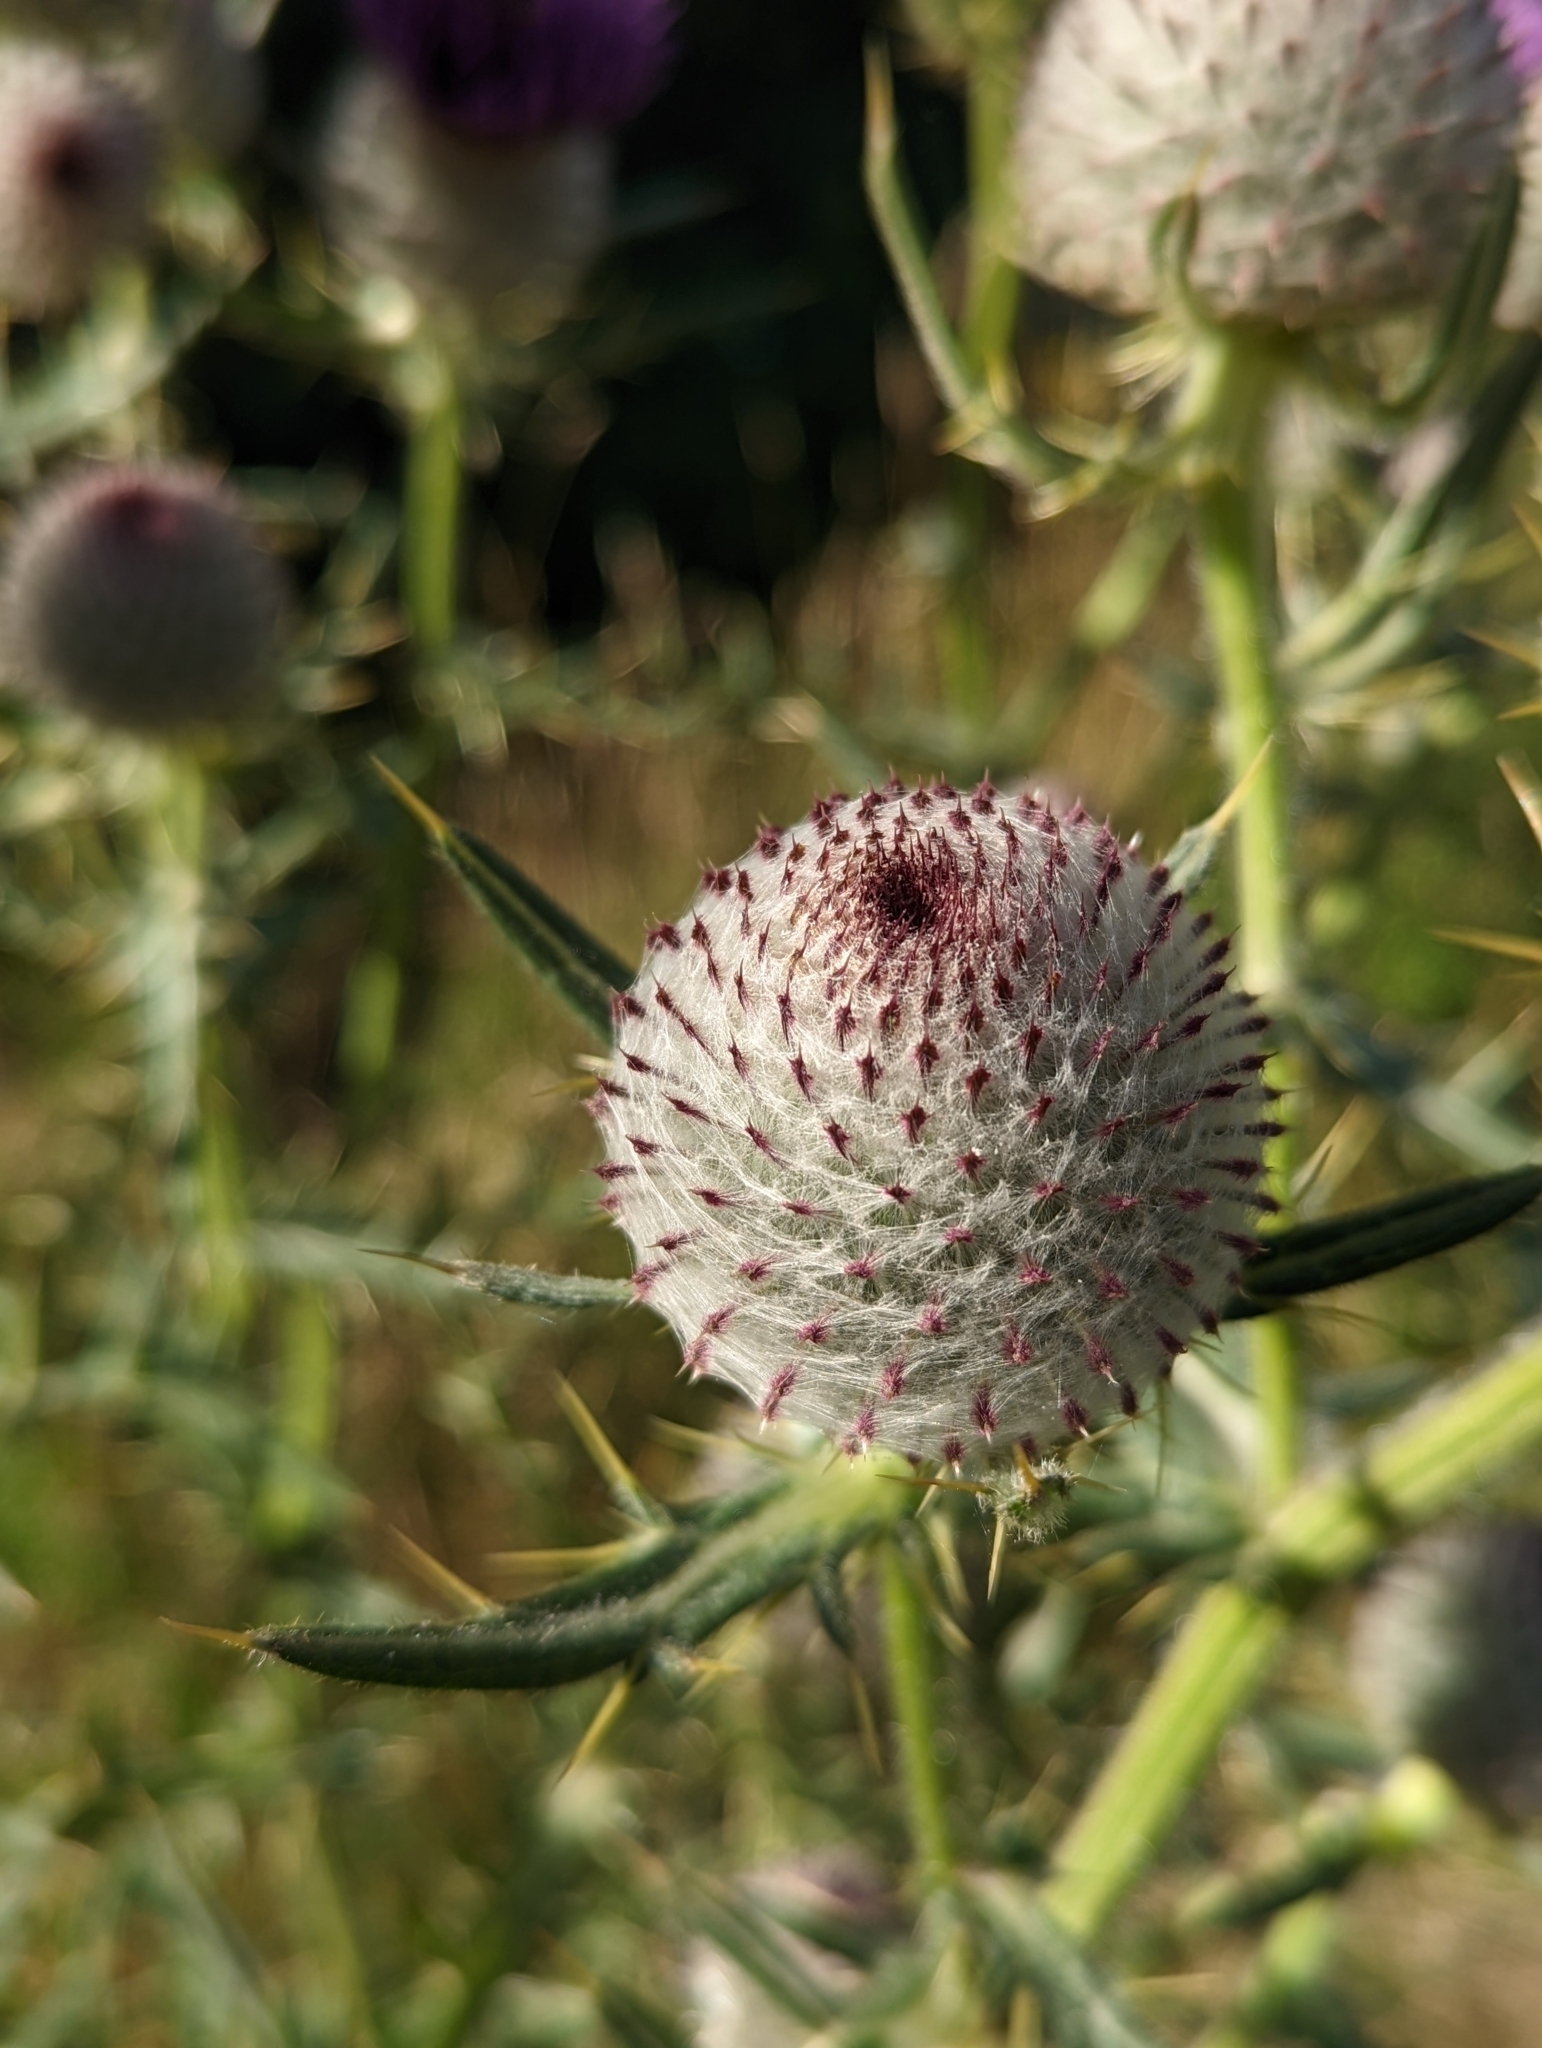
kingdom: Plantae
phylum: Tracheophyta
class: Magnoliopsida
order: Asterales
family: Asteraceae
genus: Lophiolepis
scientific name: Lophiolepis eriophora
